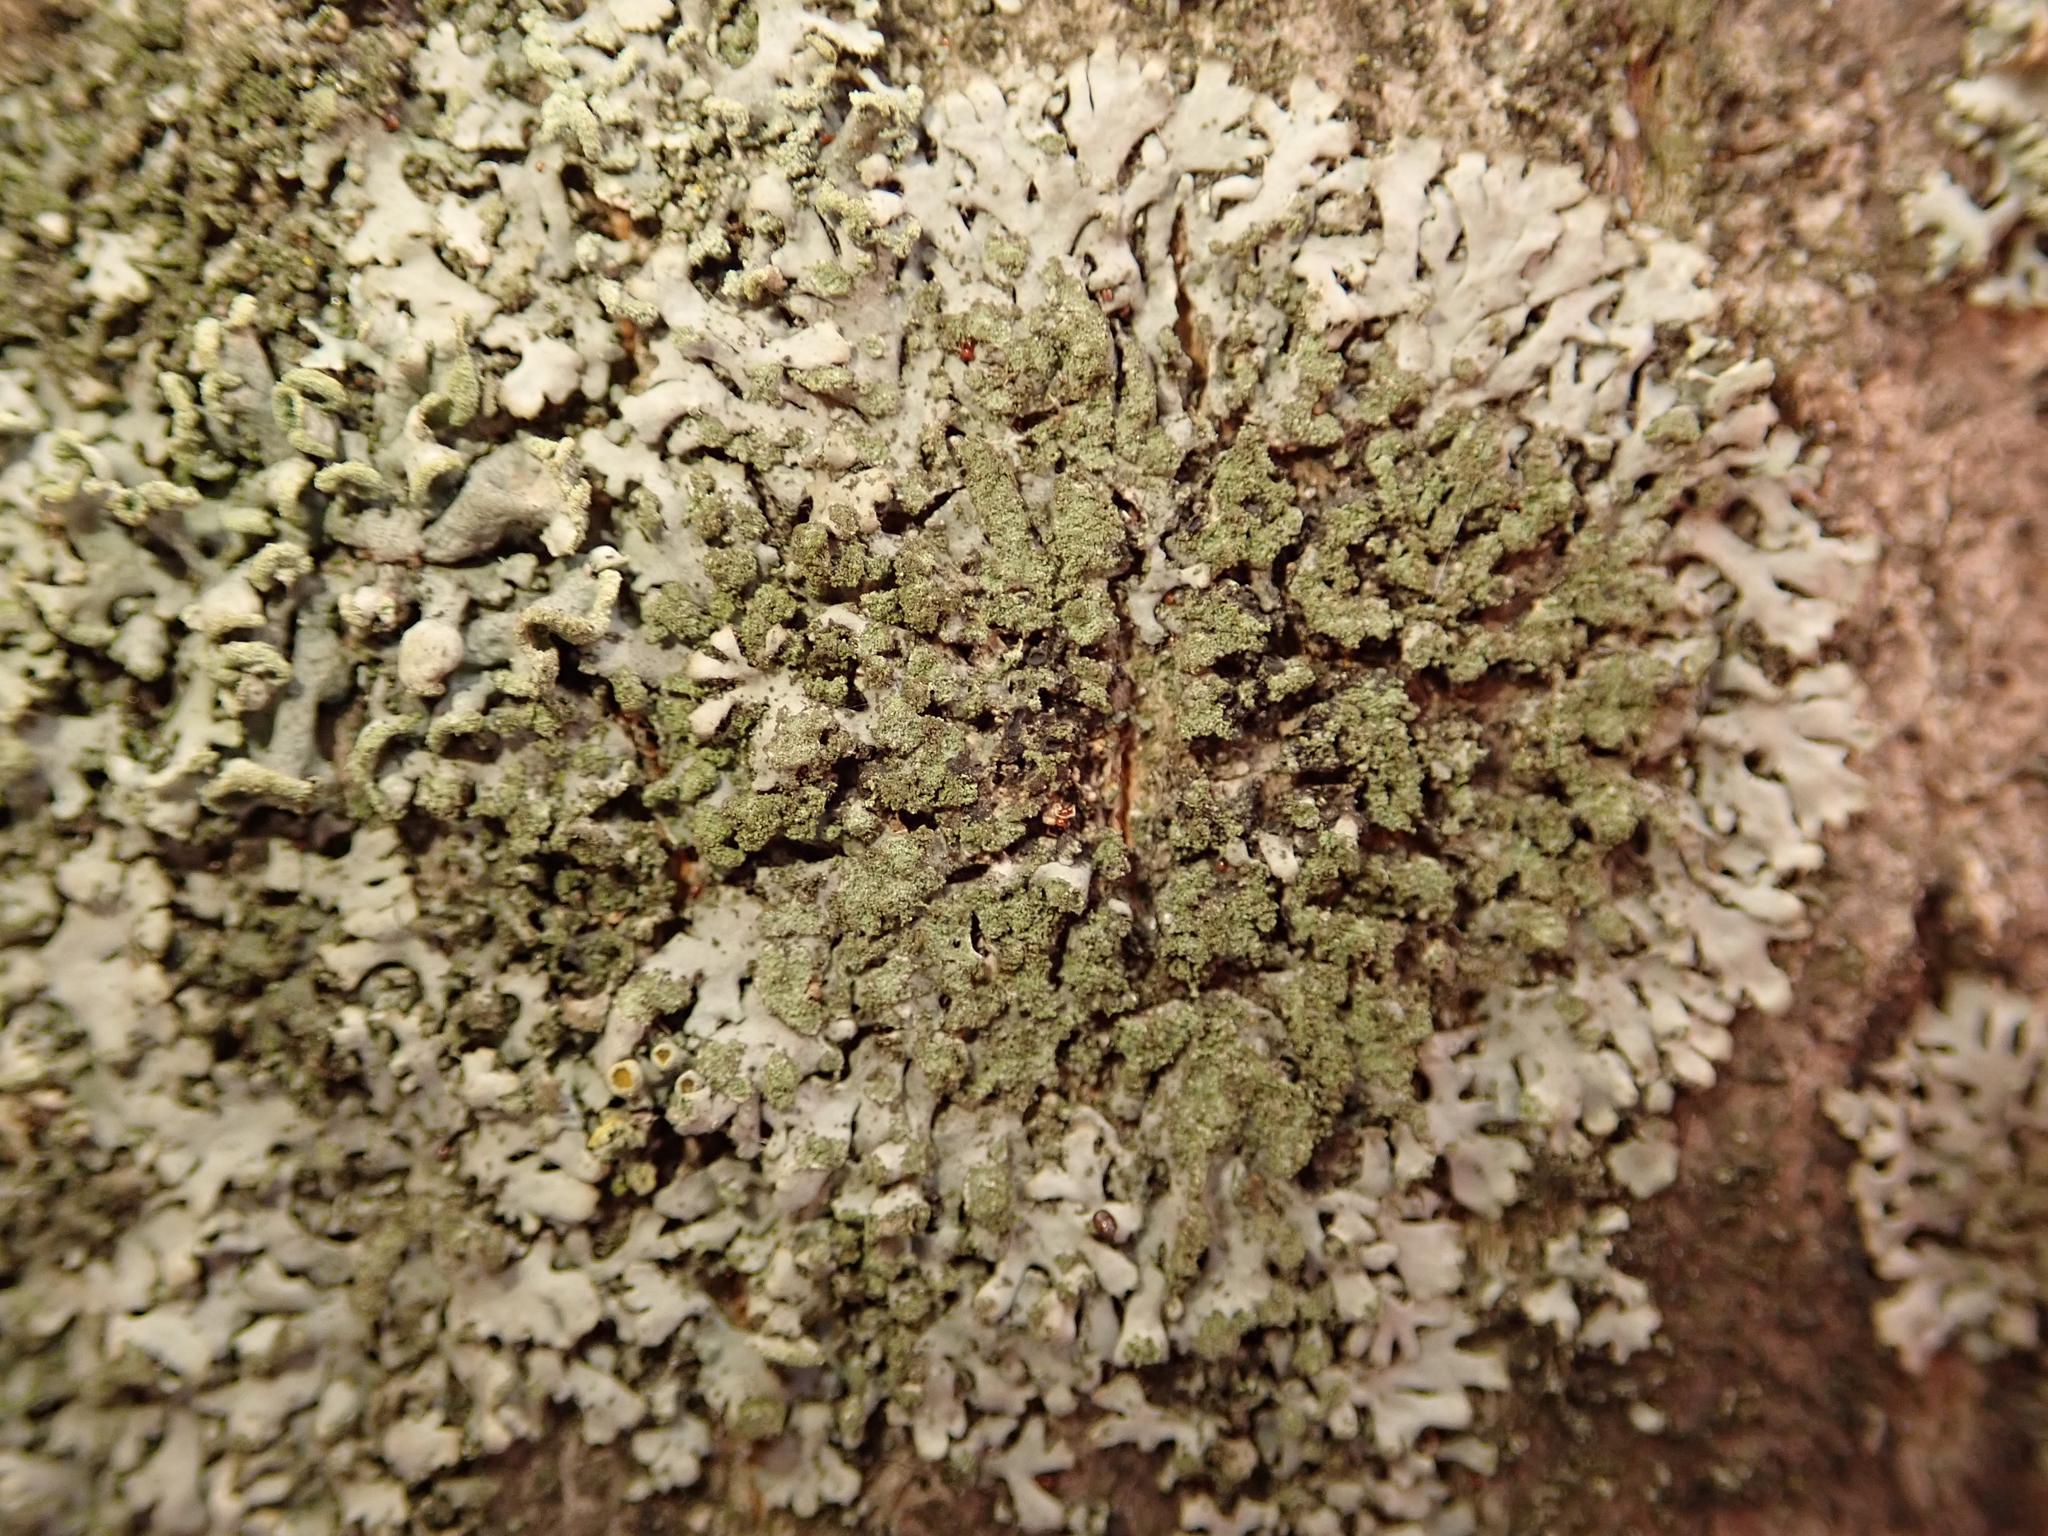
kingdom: Fungi
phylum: Ascomycota
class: Lecanoromycetes
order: Caliciales
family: Physciaceae
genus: Phaeophyscia
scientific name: Phaeophyscia orbicularis
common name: Mealy shadow lichen
